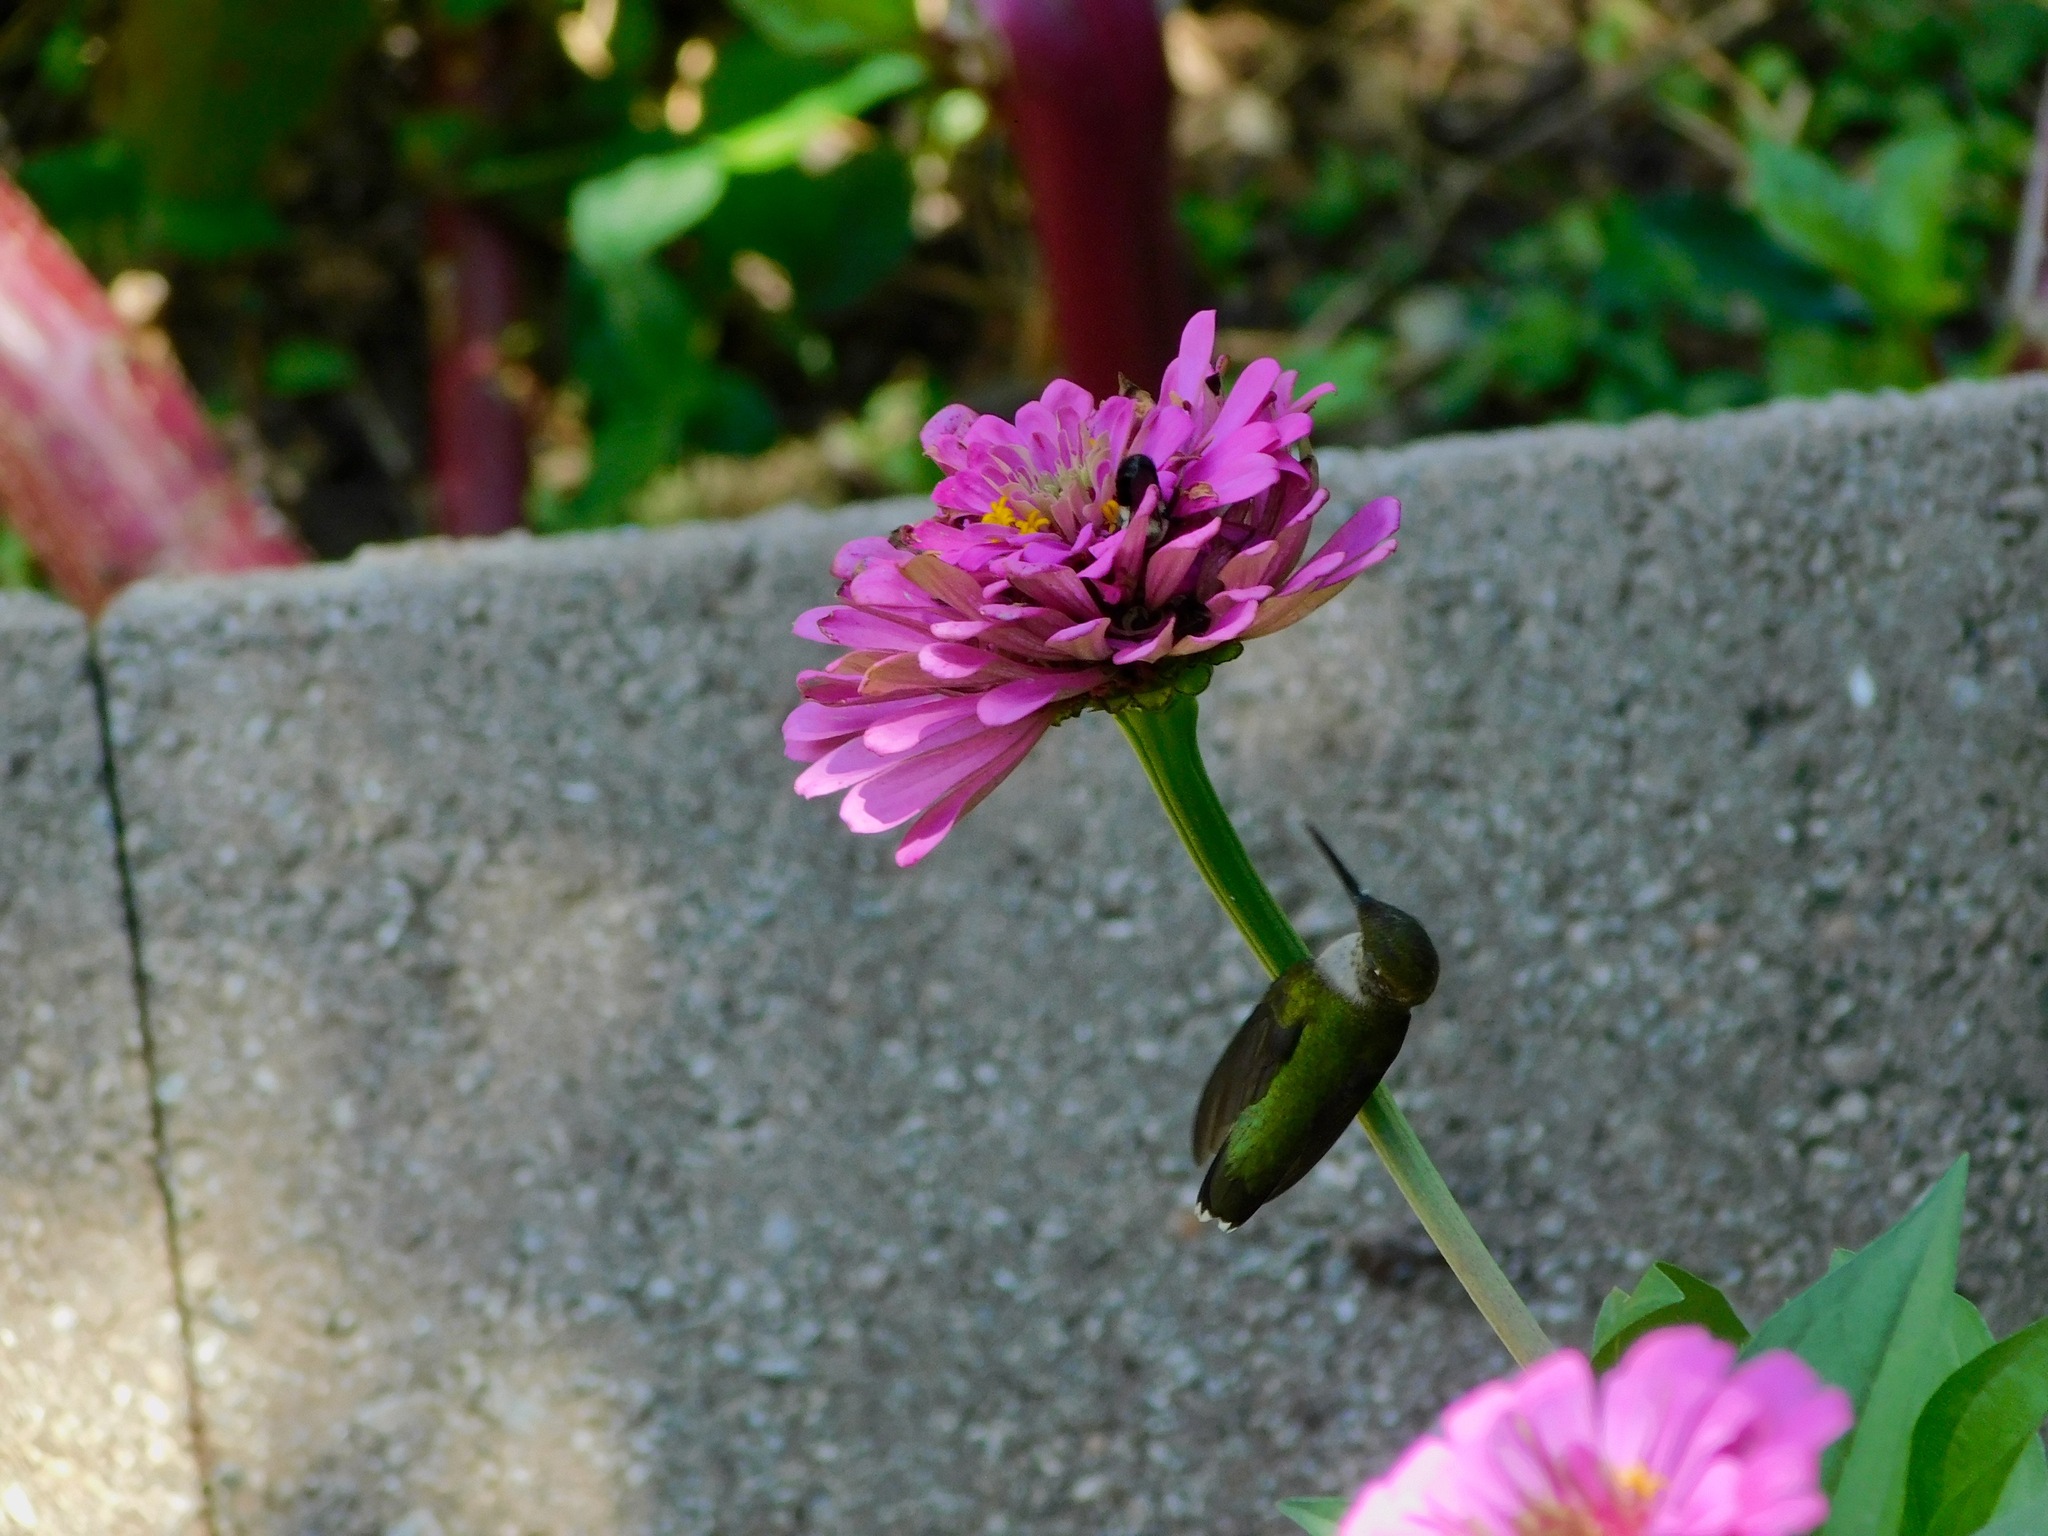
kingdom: Animalia
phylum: Chordata
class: Aves
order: Apodiformes
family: Trochilidae
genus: Archilochus
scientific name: Archilochus colubris
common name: Ruby-throated hummingbird
